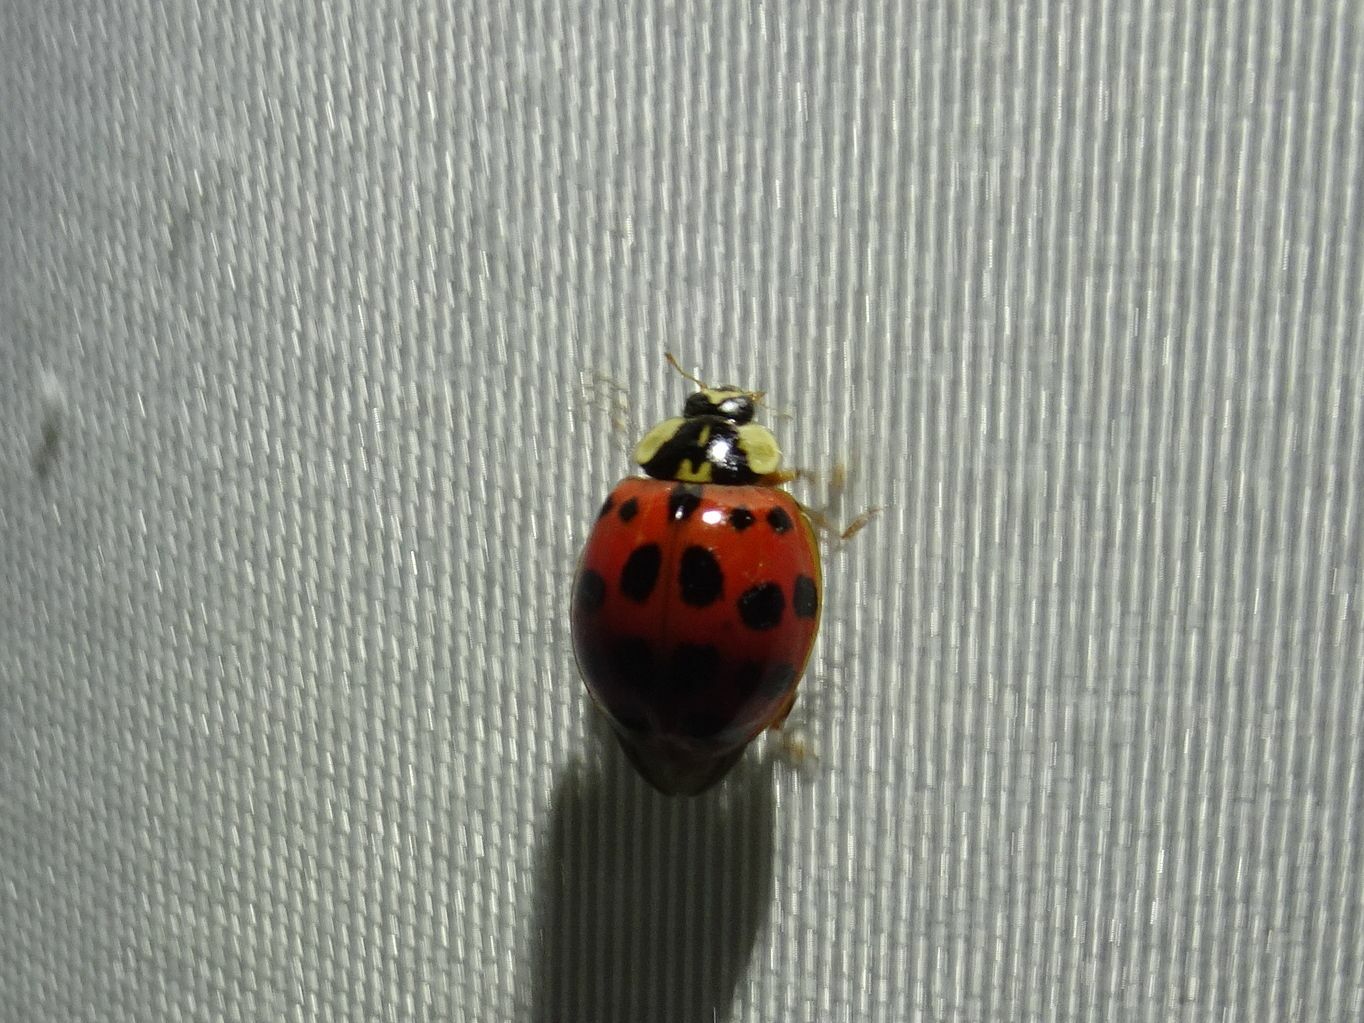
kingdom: Animalia
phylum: Arthropoda
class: Insecta
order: Coleoptera
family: Coccinellidae
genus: Harmonia
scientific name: Harmonia axyridis
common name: Harlequin ladybird
